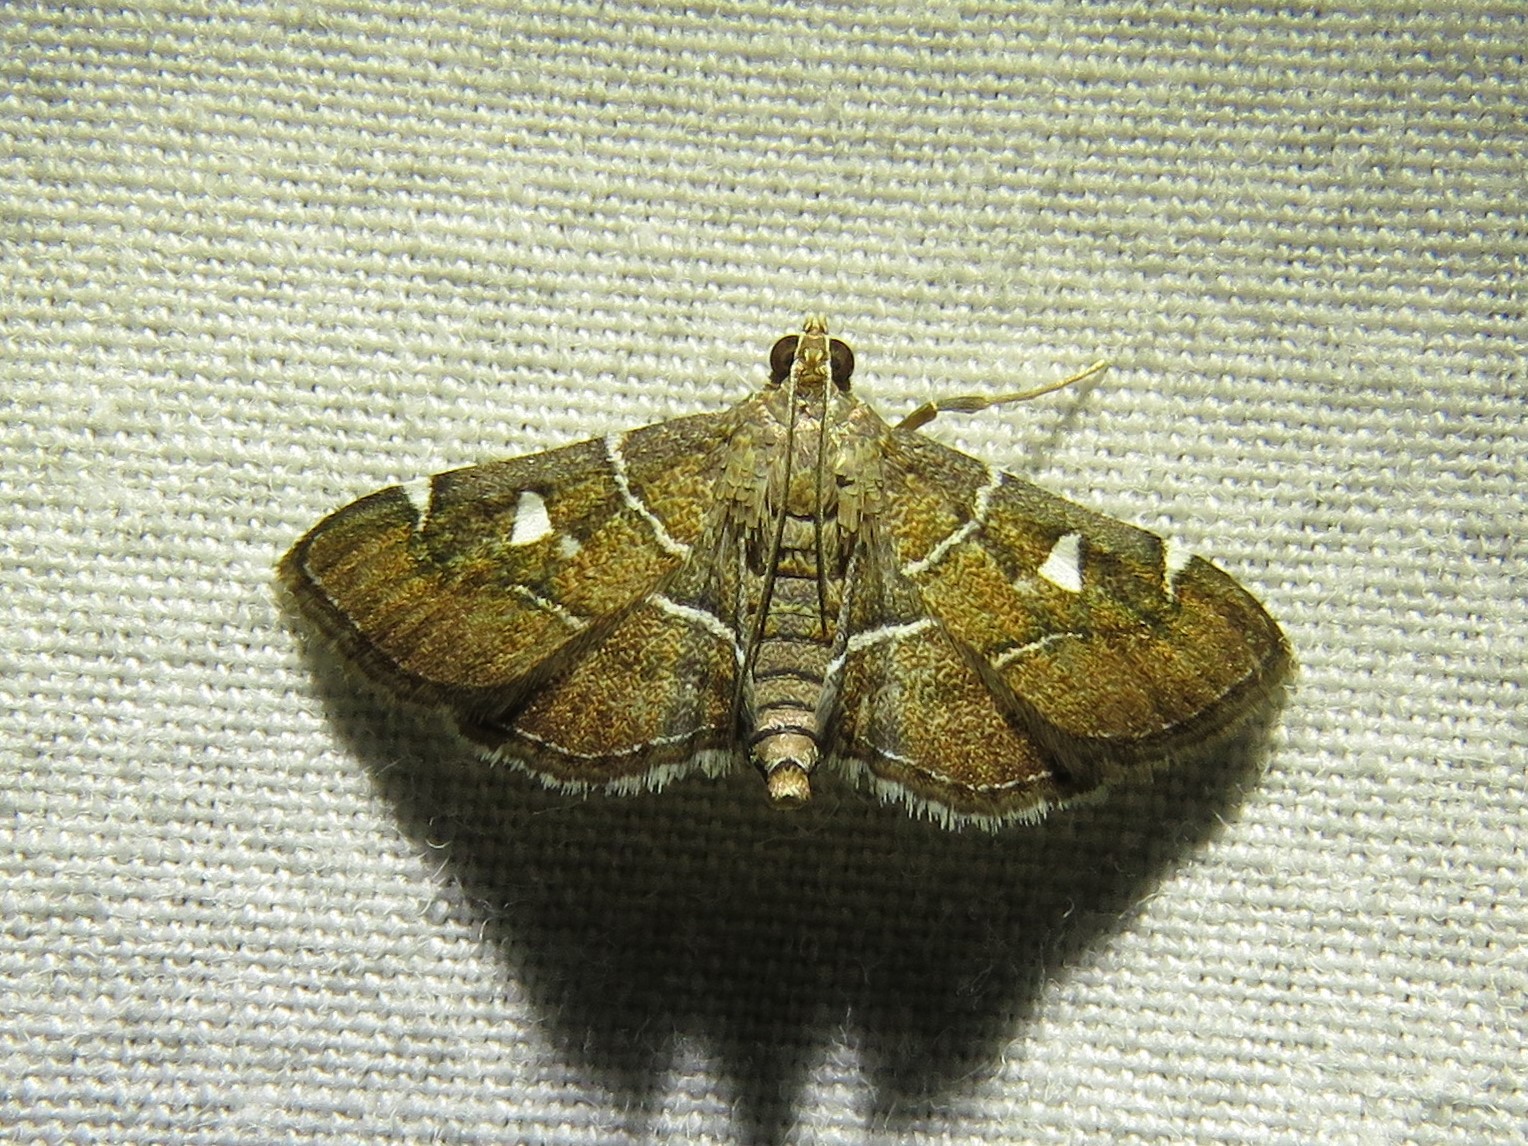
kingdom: Animalia
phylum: Arthropoda
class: Insecta
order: Lepidoptera
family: Crambidae
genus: Lamprosema
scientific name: Lamprosema victoriae
